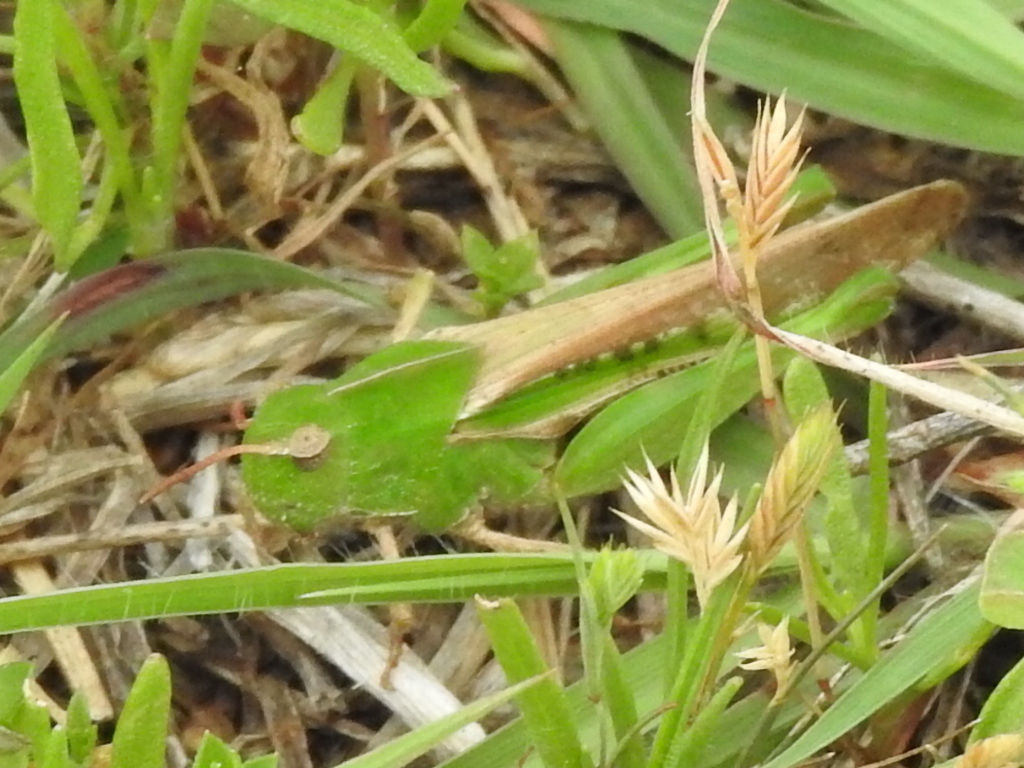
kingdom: Animalia
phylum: Arthropoda
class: Insecta
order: Orthoptera
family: Acrididae
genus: Chortophaga
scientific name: Chortophaga viridifasciata
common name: Green-striped grasshopper
